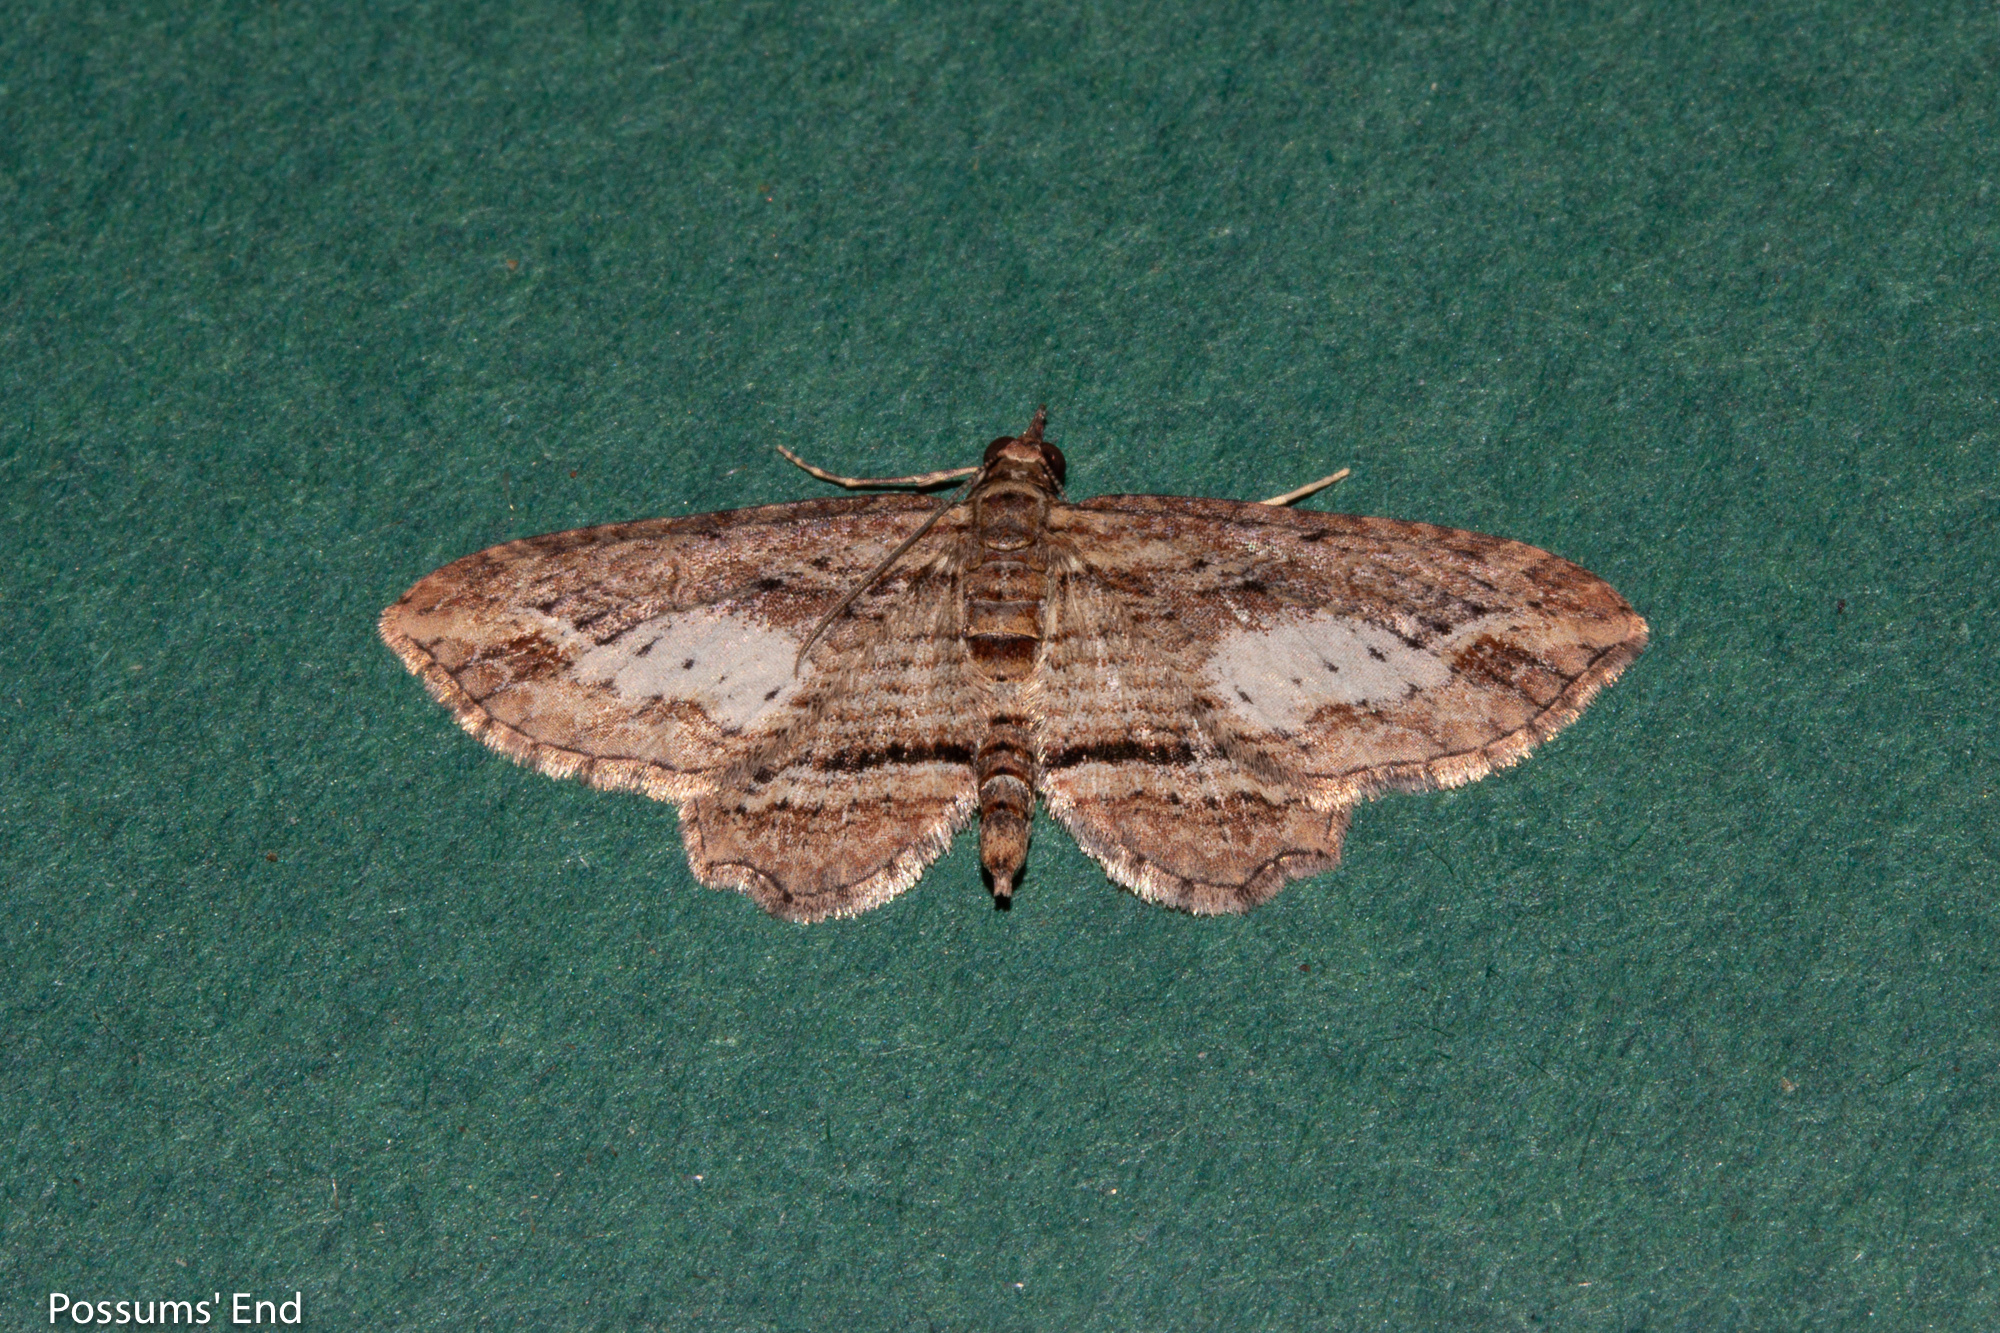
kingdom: Animalia
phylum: Arthropoda
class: Insecta
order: Lepidoptera
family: Geometridae
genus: Chloroclystis
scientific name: Chloroclystis filata
